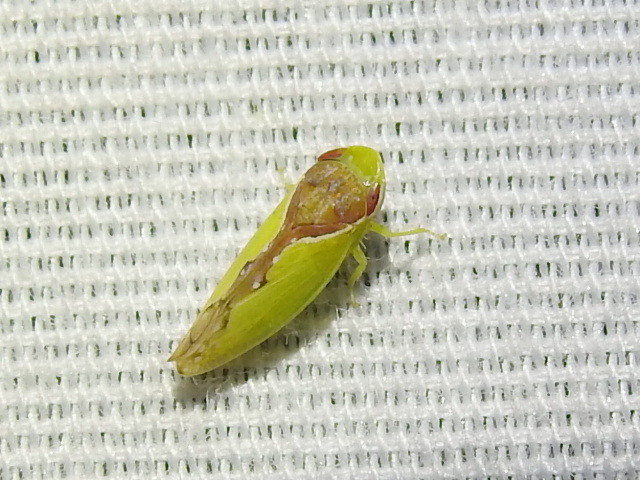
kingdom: Animalia
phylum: Arthropoda
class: Insecta
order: Hemiptera
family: Cicadellidae
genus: Omansobara ing
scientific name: Omansobara ing Omansobara palliolata
